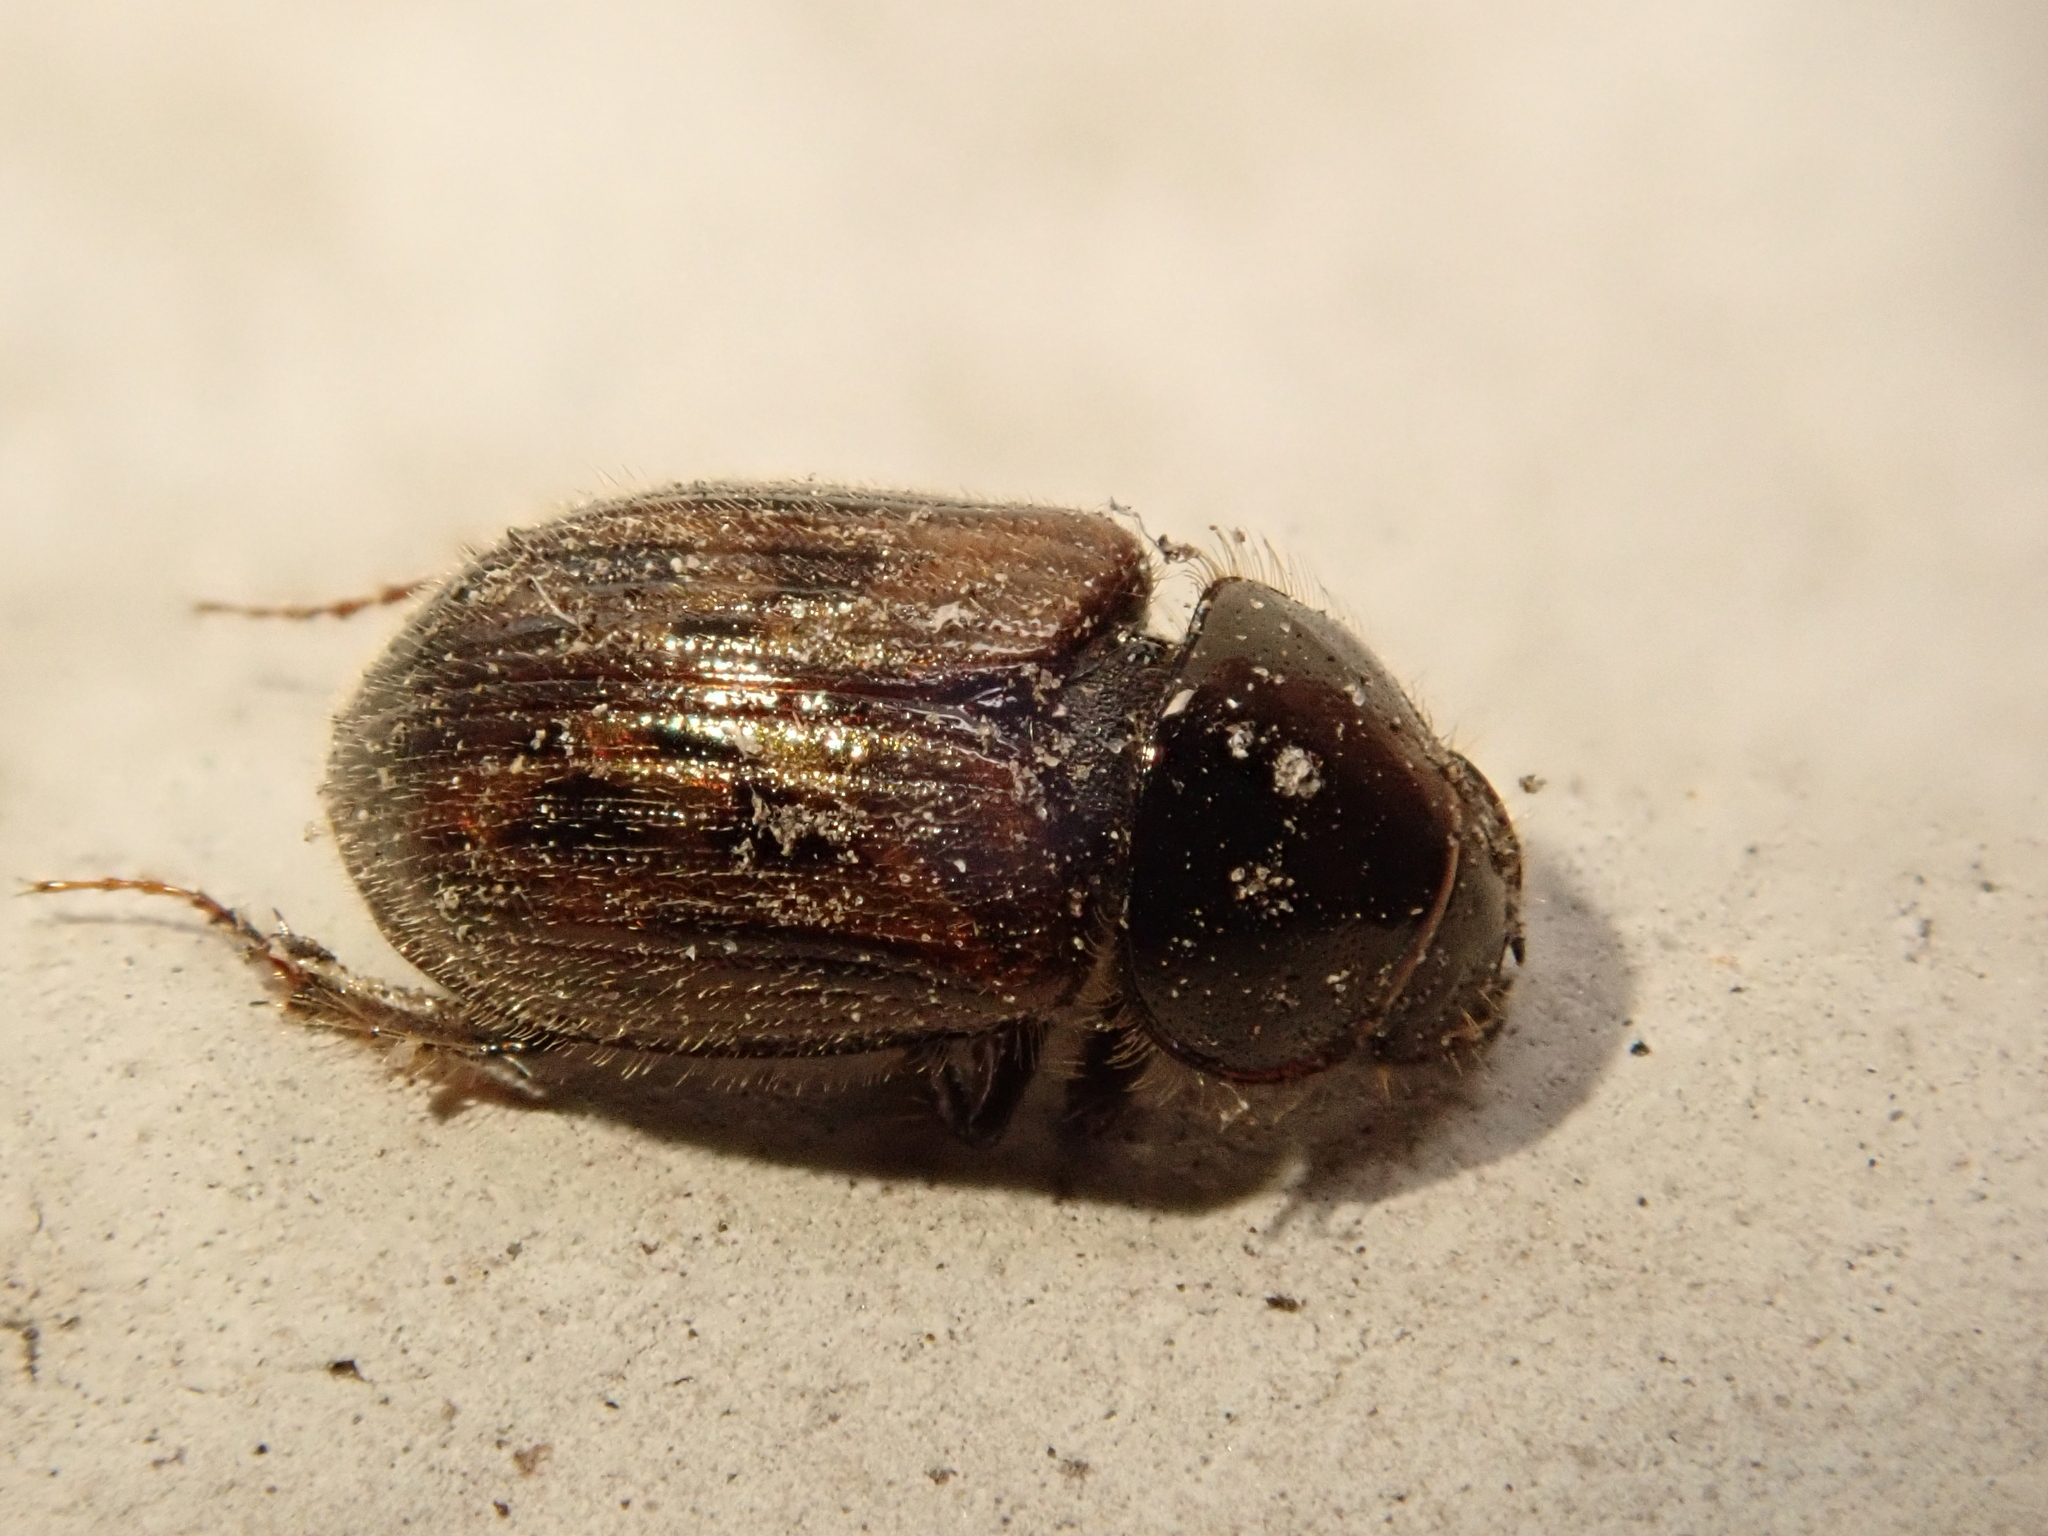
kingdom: Animalia
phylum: Arthropoda
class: Insecta
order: Coleoptera
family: Scarabaeidae
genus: Nimbus
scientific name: Nimbus contaminatus
